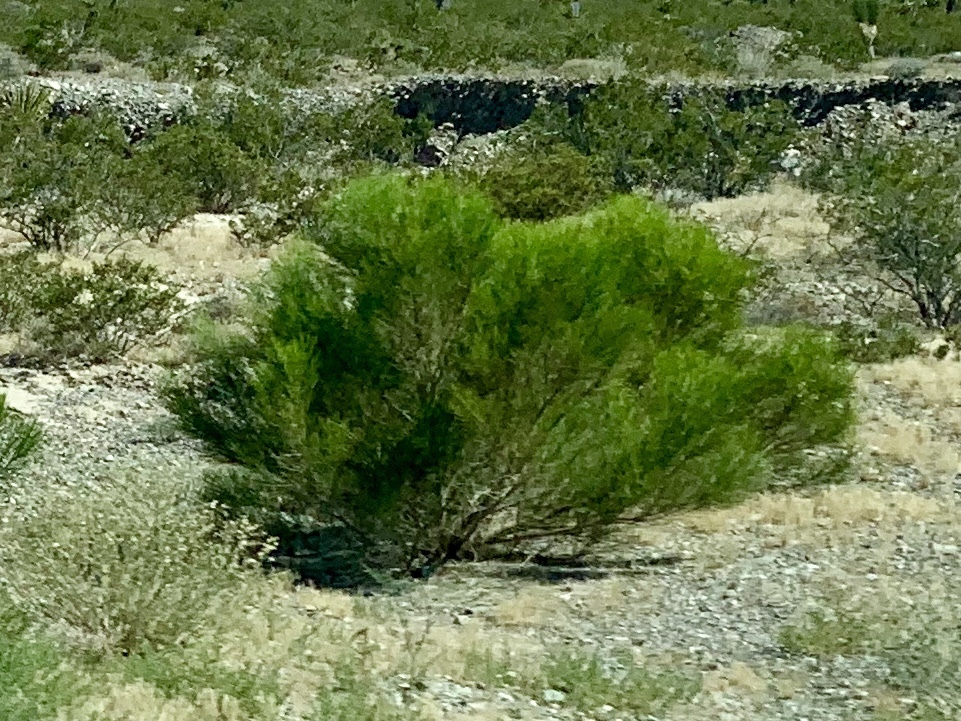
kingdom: Plantae
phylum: Tracheophyta
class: Magnoliopsida
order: Asterales
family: Asteraceae
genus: Baccharis
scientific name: Baccharis sarothroides
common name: Desert-broom
